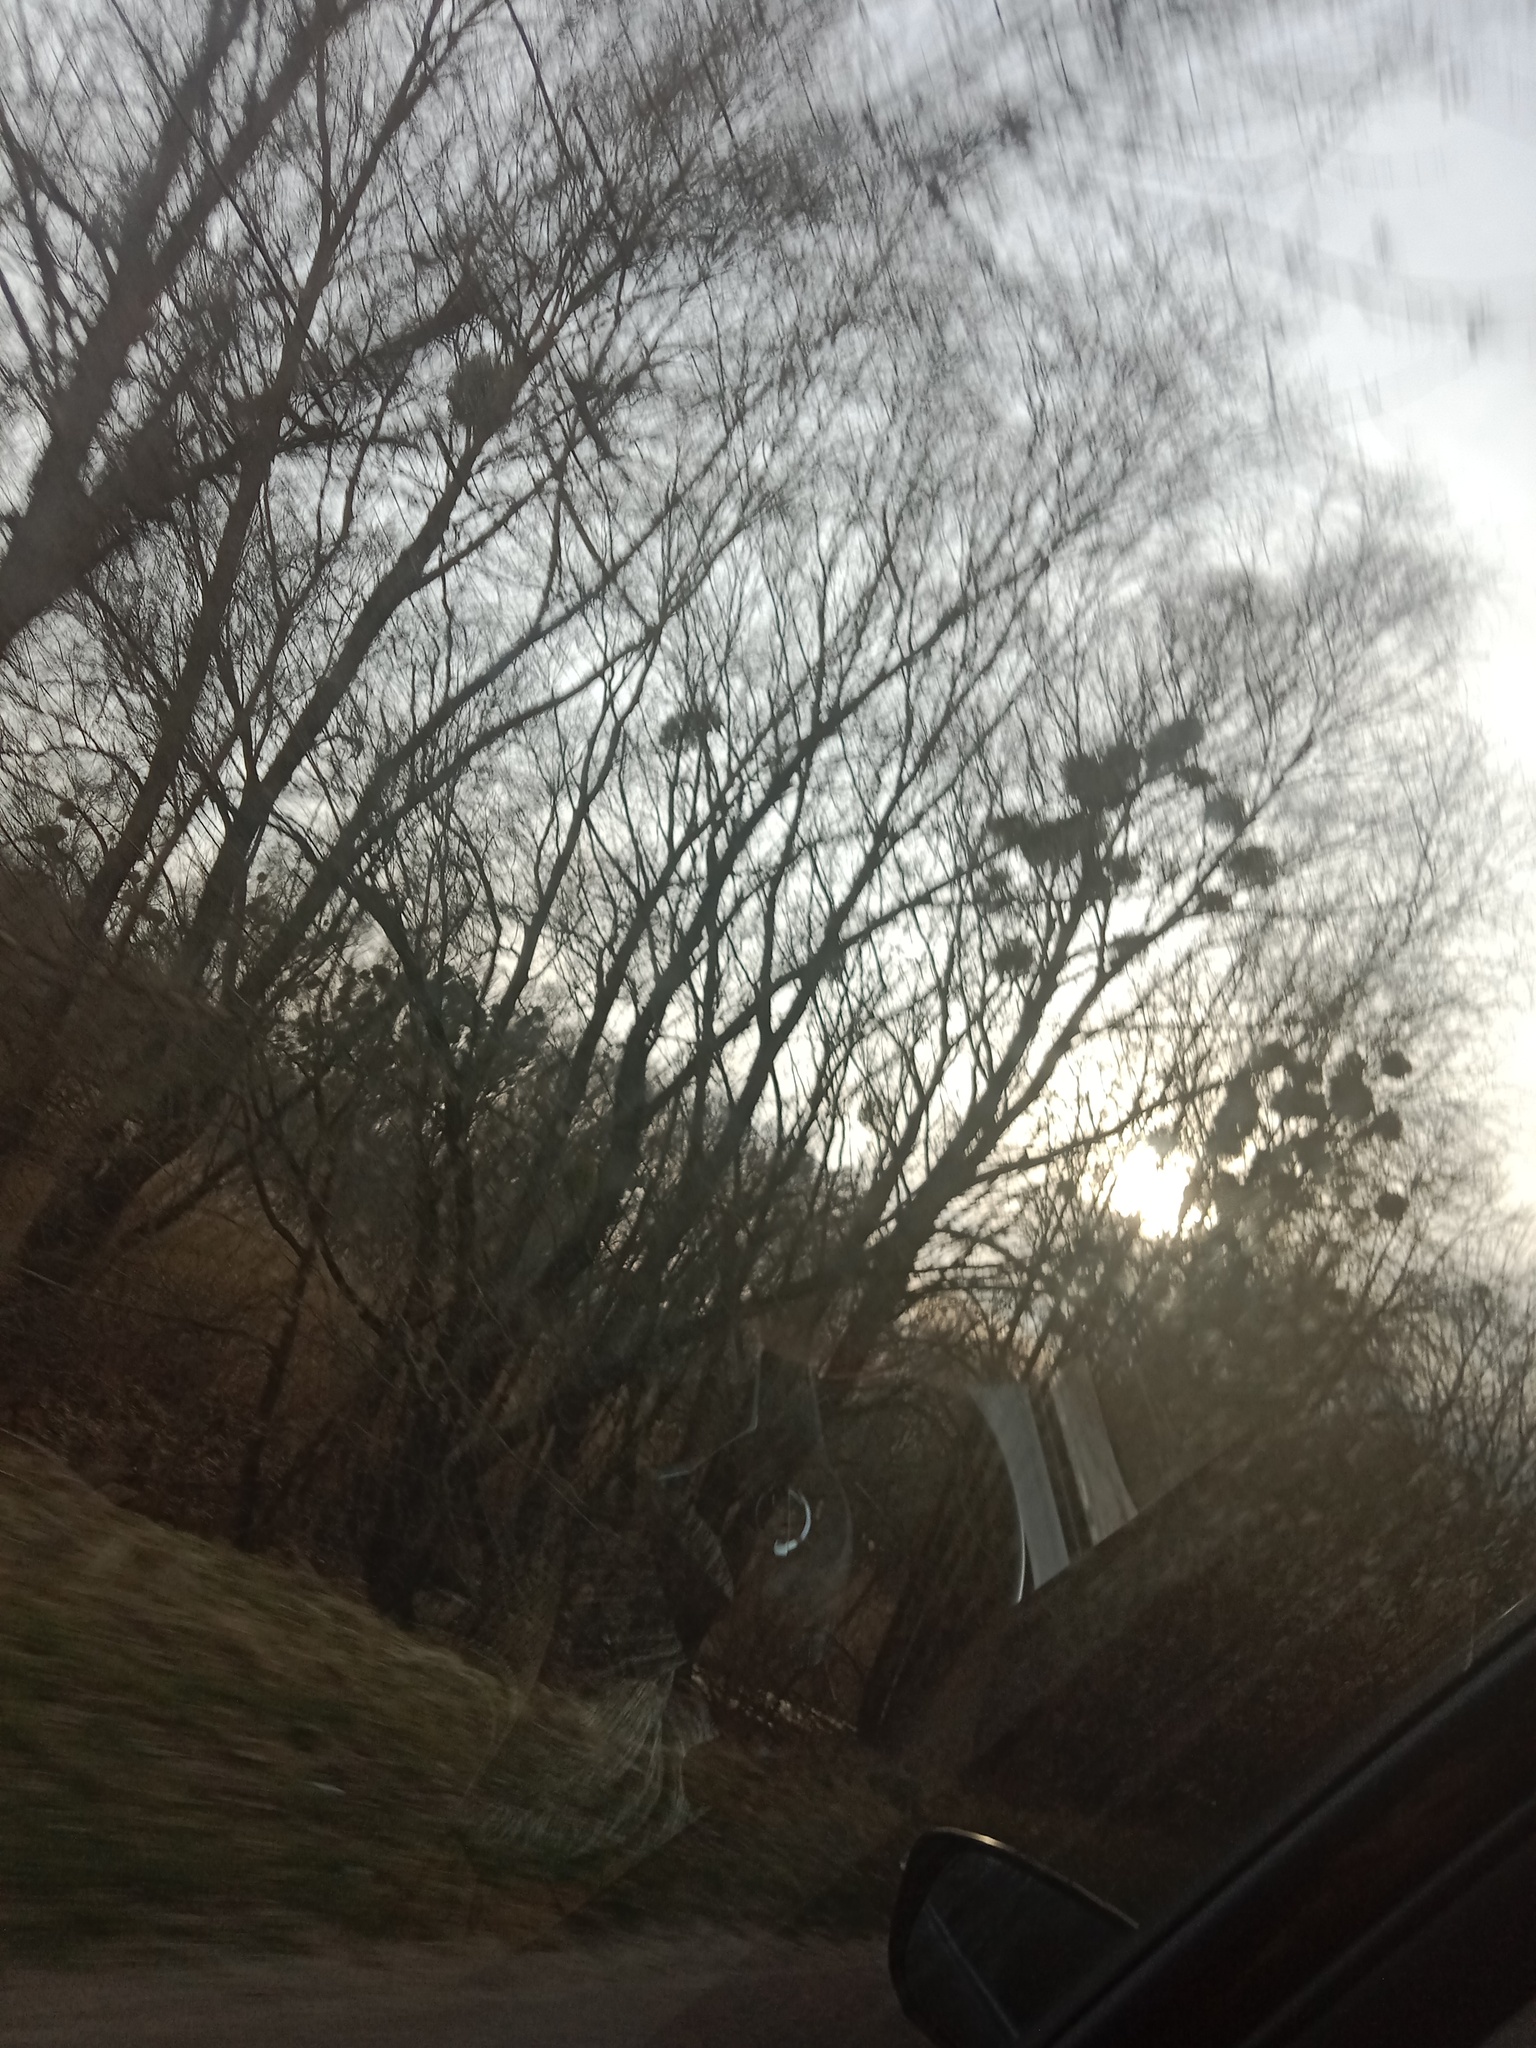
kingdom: Plantae
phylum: Tracheophyta
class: Magnoliopsida
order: Santalales
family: Viscaceae
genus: Viscum
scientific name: Viscum album
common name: Mistletoe
